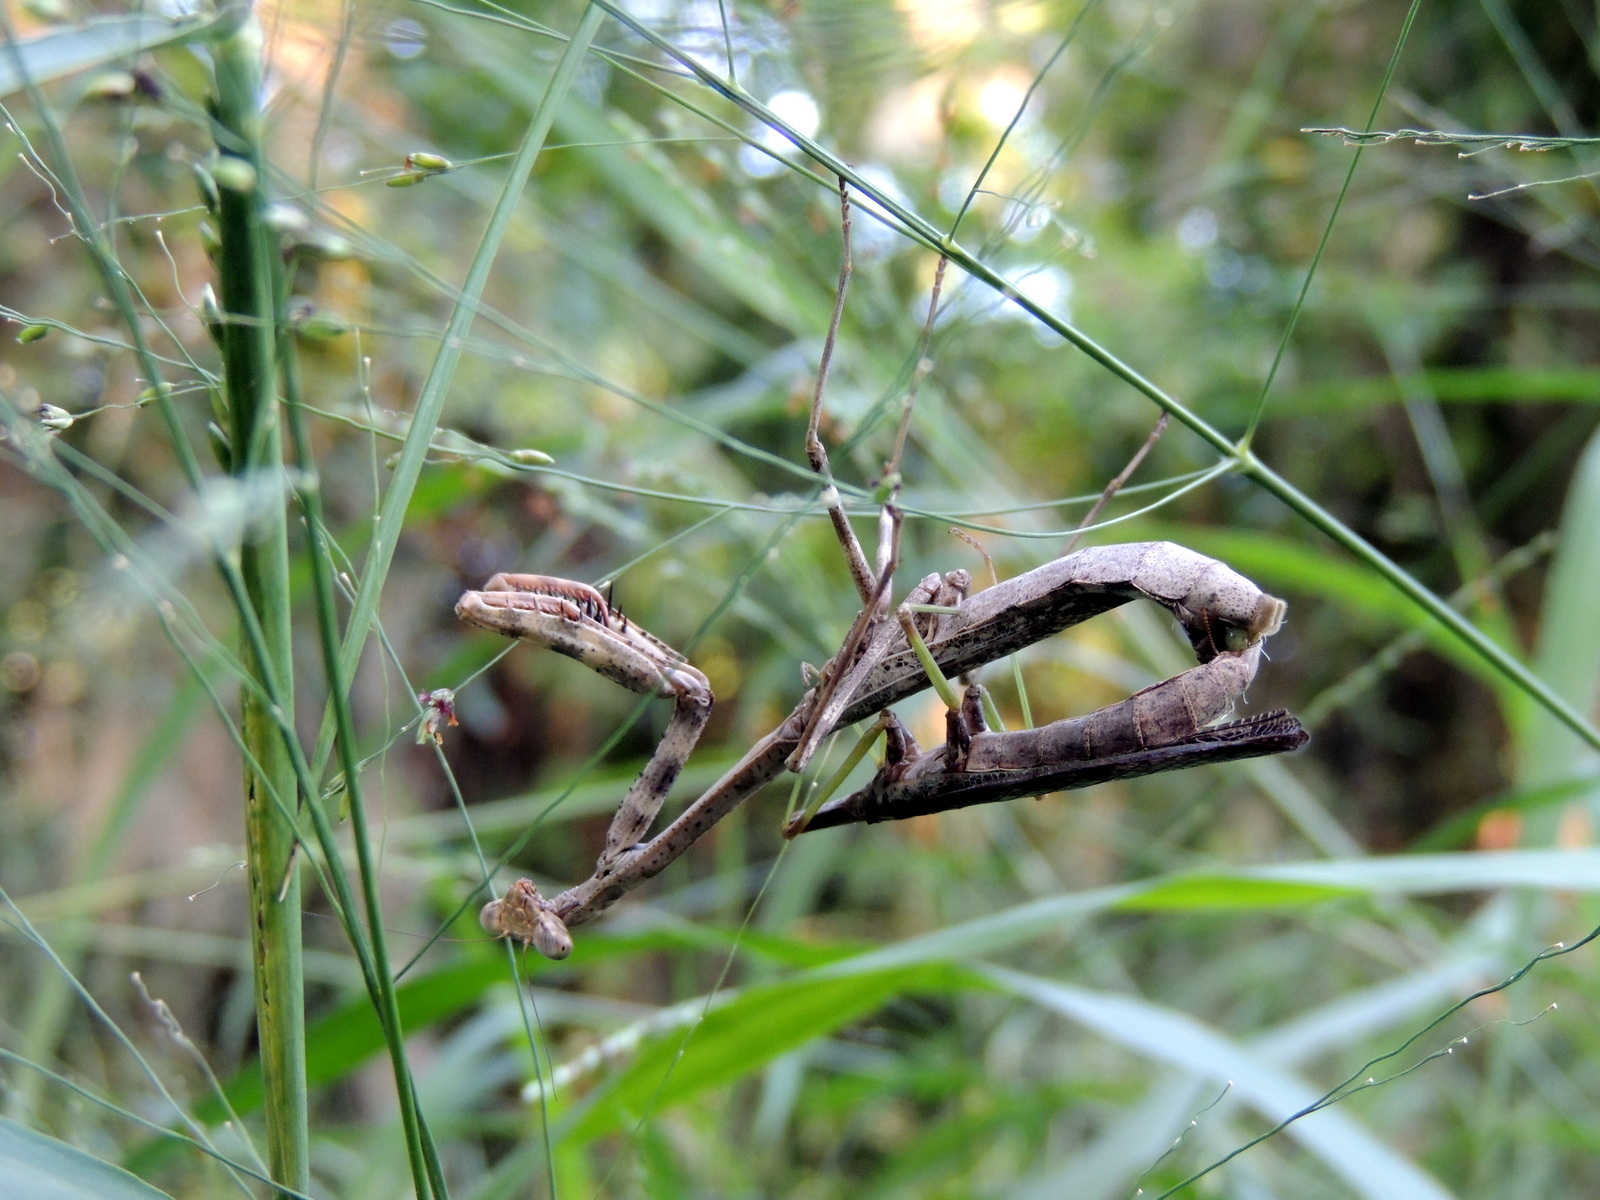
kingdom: Animalia
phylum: Arthropoda
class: Insecta
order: Mantodea
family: Mantidae
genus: Stagmomantis
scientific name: Stagmomantis carolina
